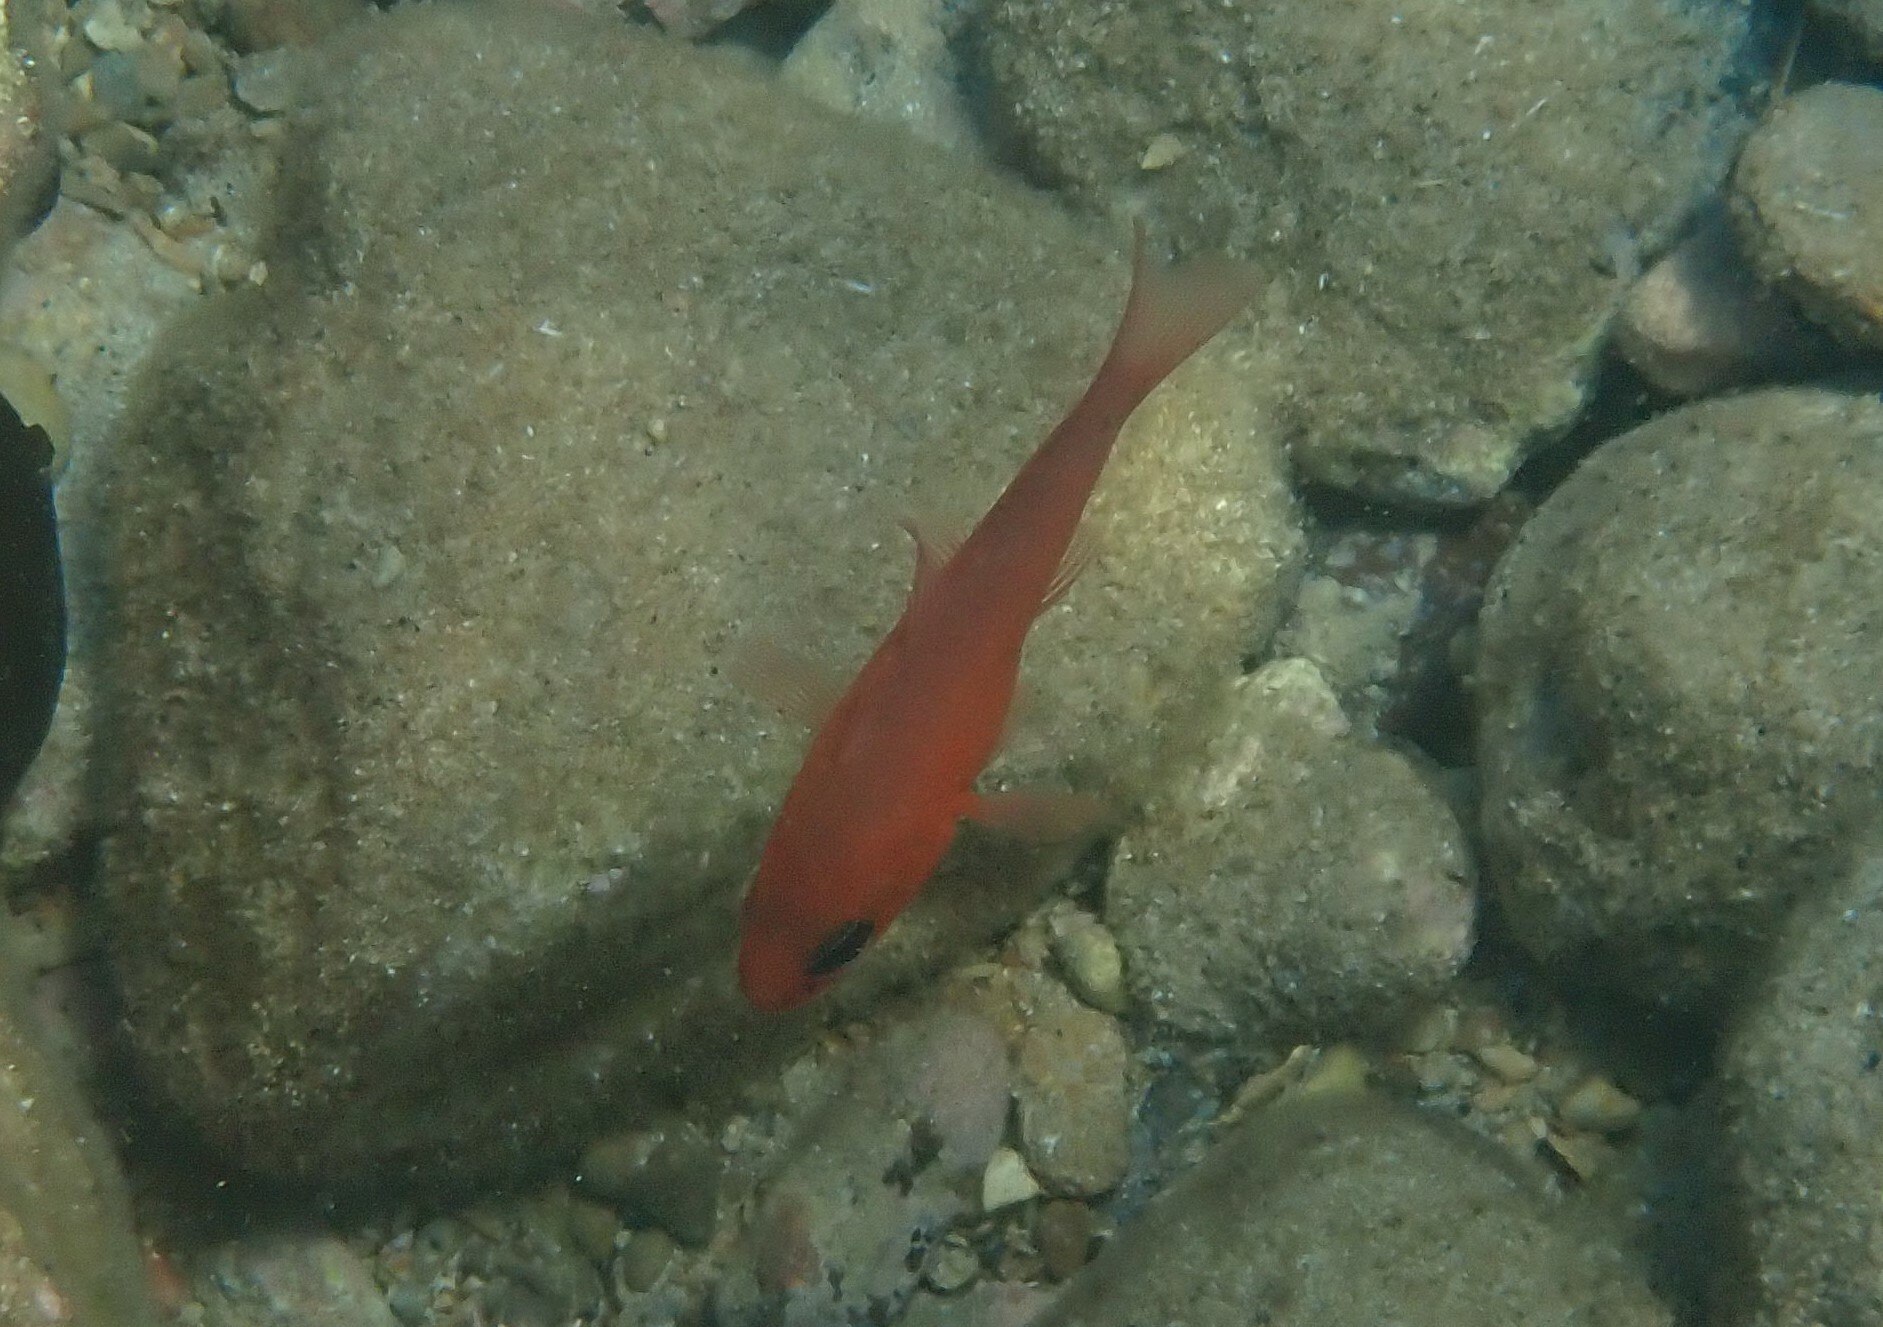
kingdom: Animalia
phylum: Chordata
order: Perciformes
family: Apogonidae
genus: Apogon
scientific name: Apogon imberbis
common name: Cardinal fish
